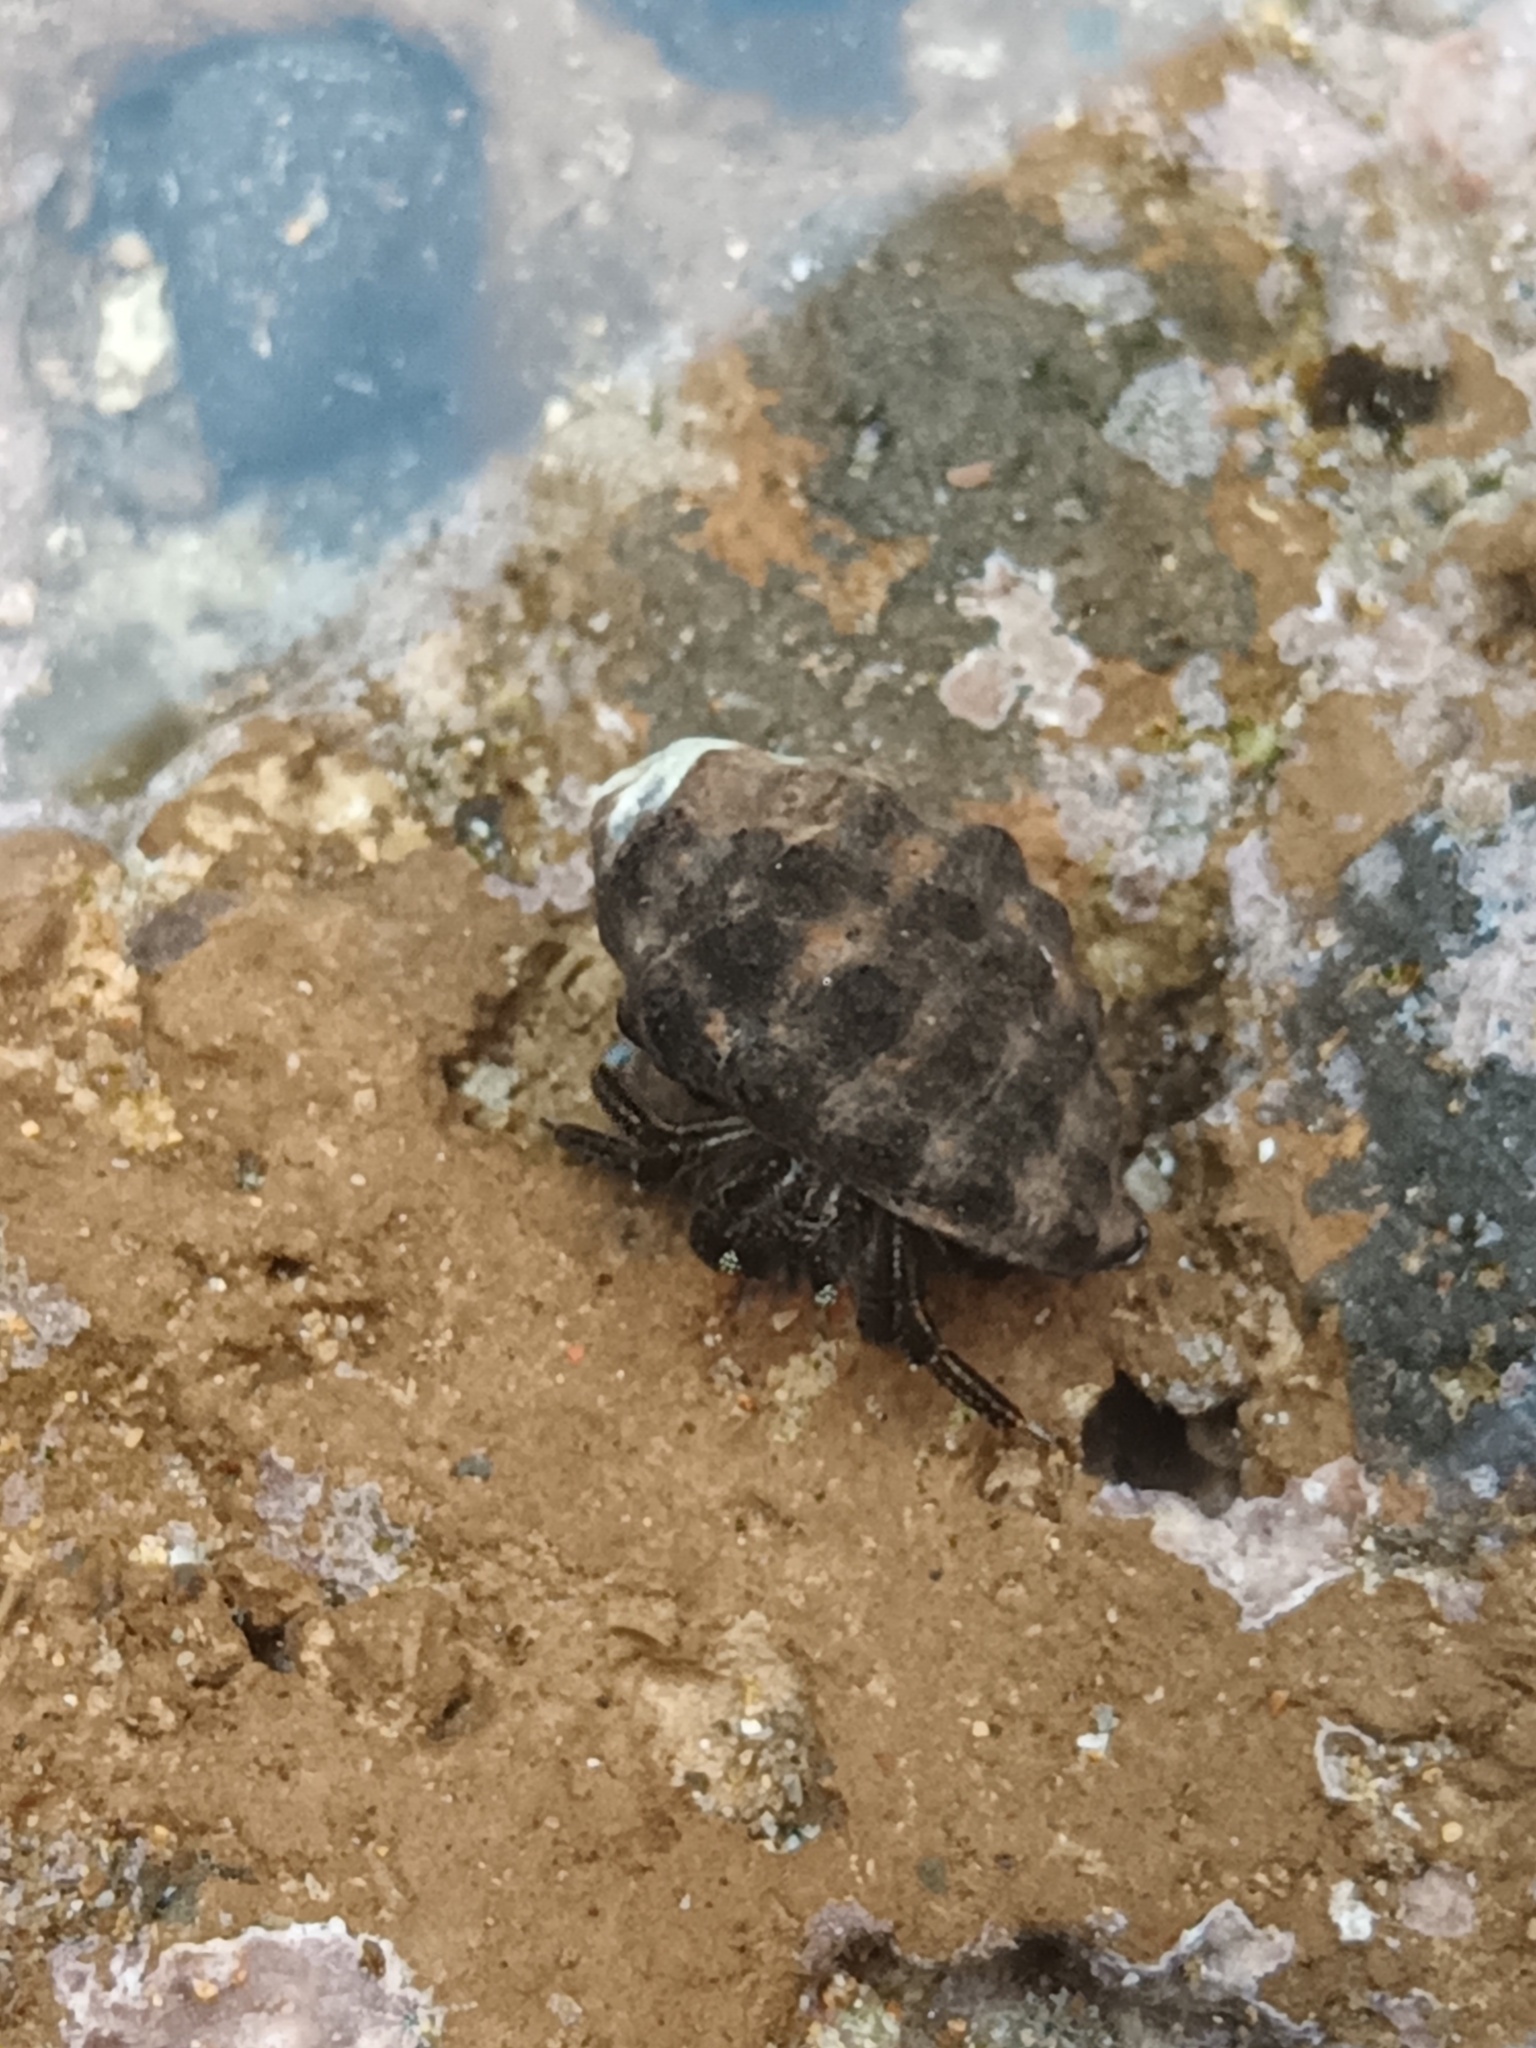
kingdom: Animalia
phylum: Arthropoda
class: Malacostraca
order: Decapoda
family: Diogenidae
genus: Clibanarius
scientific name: Clibanarius zebra
